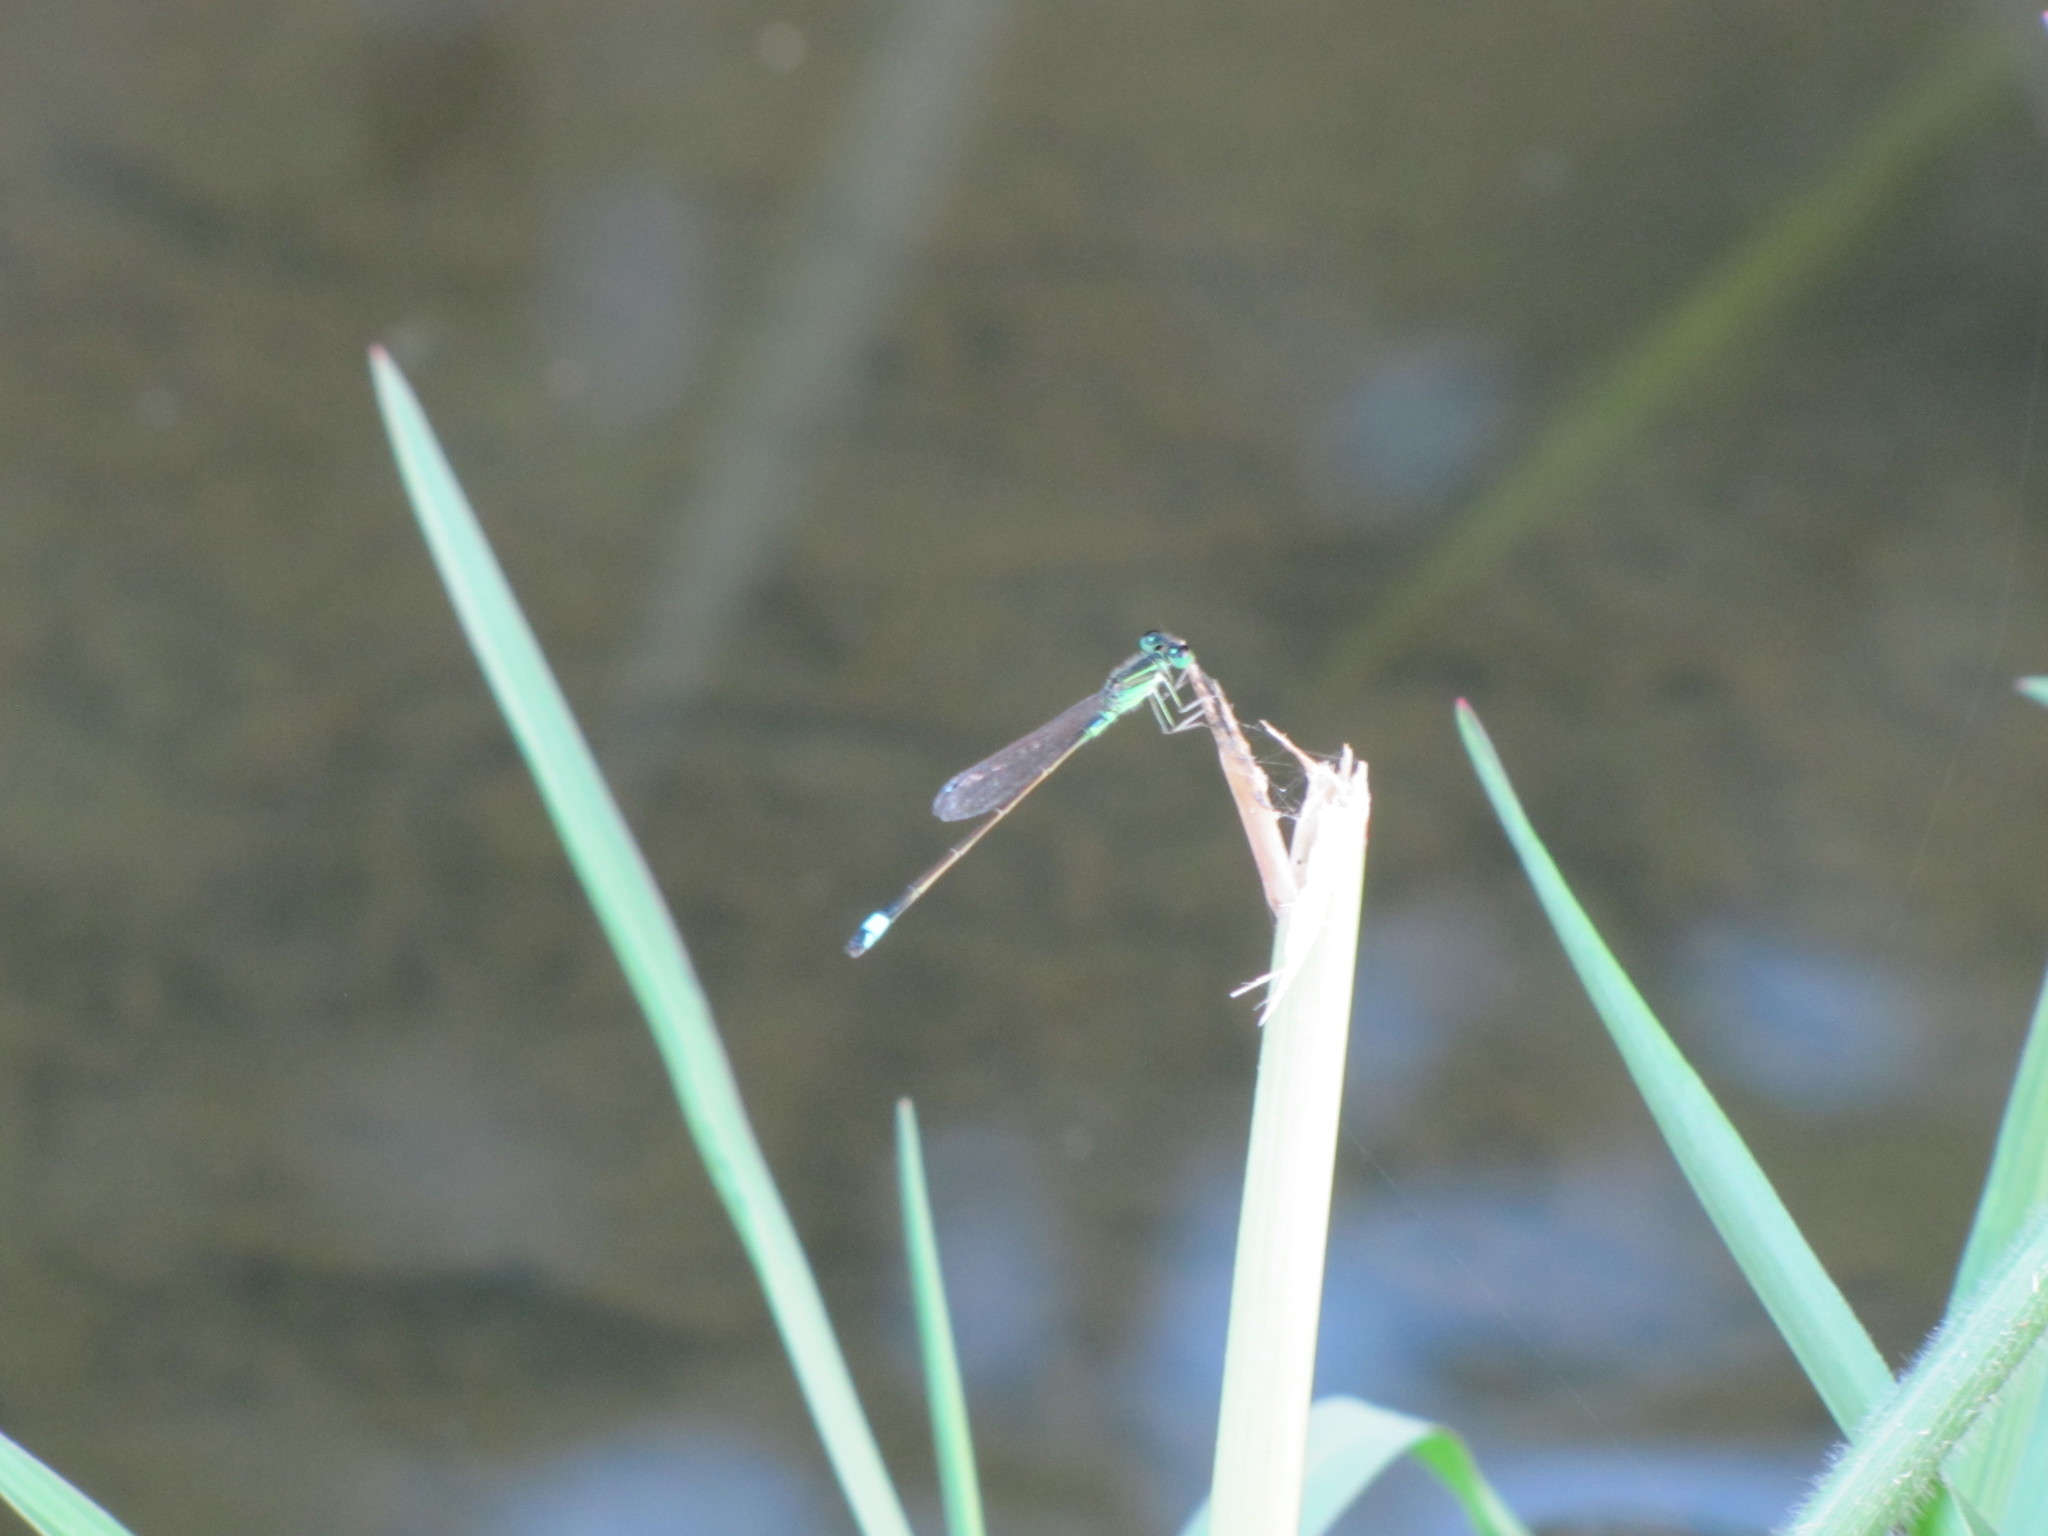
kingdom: Animalia
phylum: Arthropoda
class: Insecta
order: Odonata
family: Coenagrionidae
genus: Ischnura
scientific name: Ischnura senegalensis
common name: Tropical bluetail
